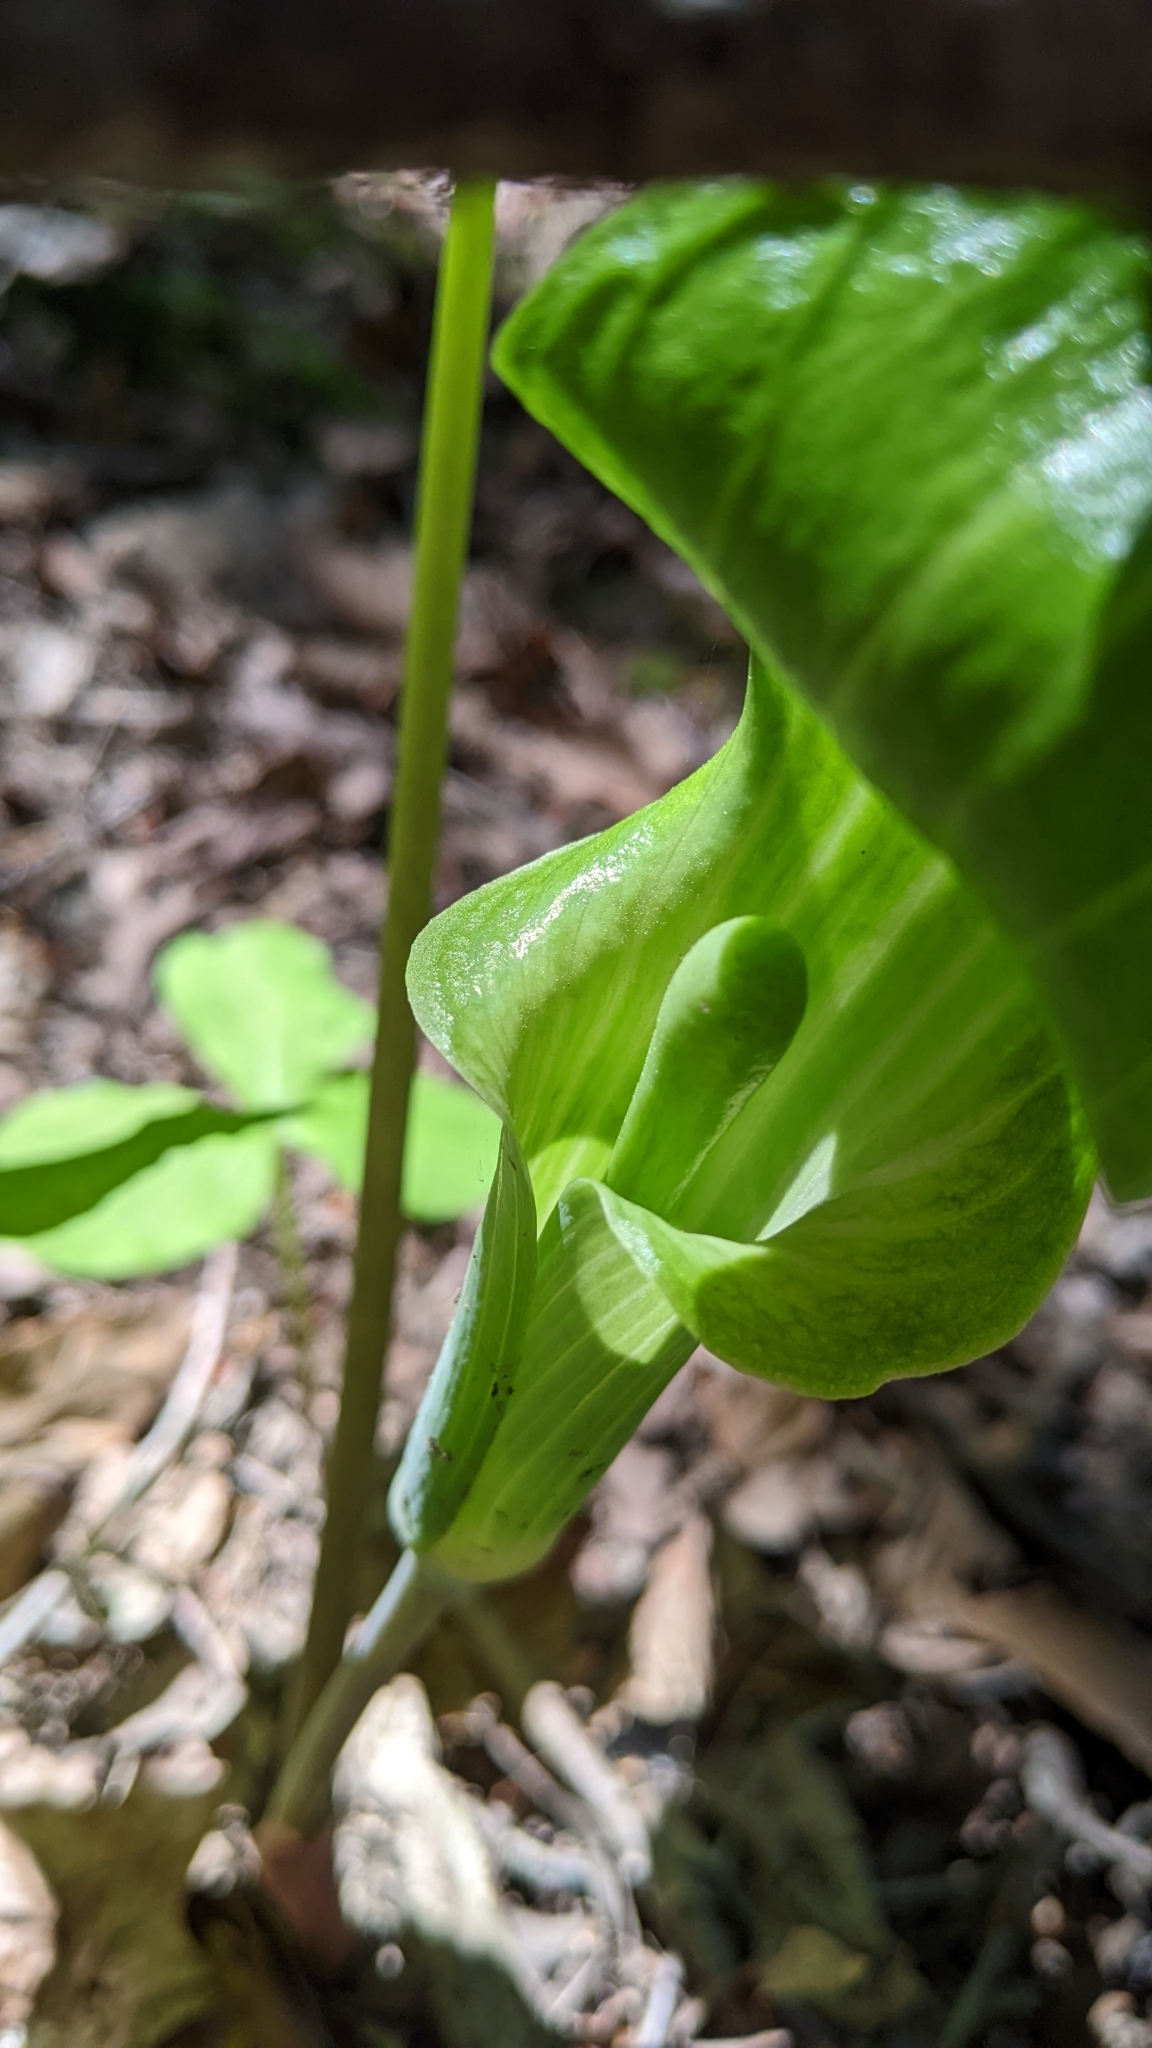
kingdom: Plantae
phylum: Tracheophyta
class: Liliopsida
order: Alismatales
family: Araceae
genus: Arisaema
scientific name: Arisaema triphyllum
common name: Jack-in-the-pulpit
